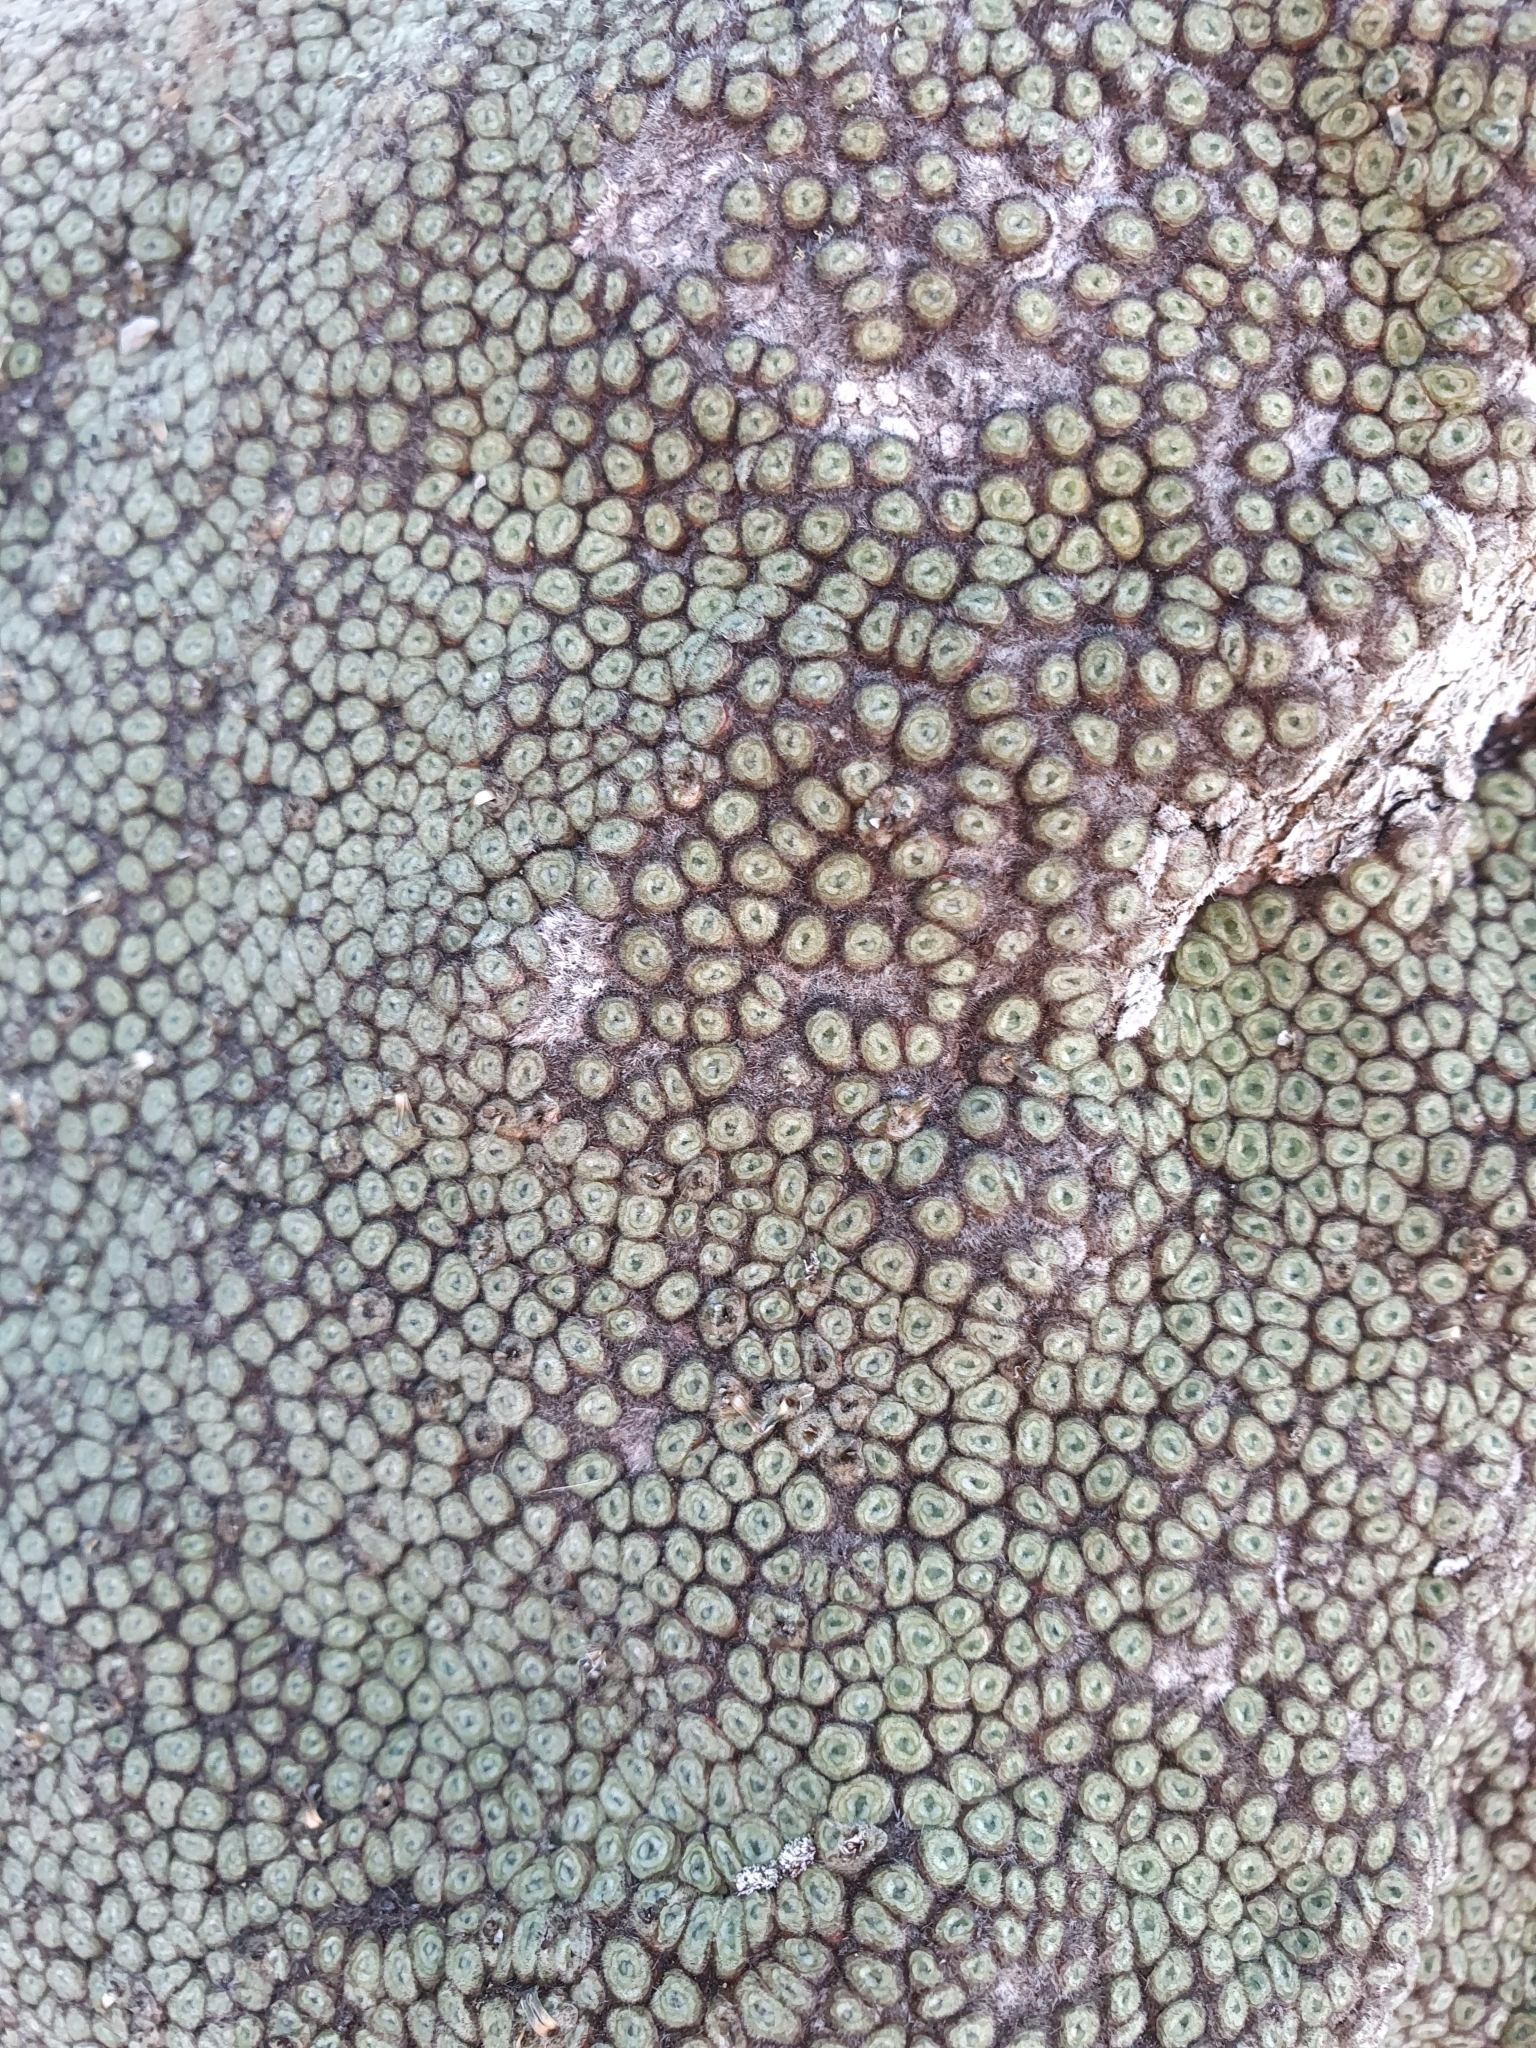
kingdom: Plantae
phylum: Tracheophyta
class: Magnoliopsida
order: Asterales
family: Asteraceae
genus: Raoulia
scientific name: Raoulia rubra
